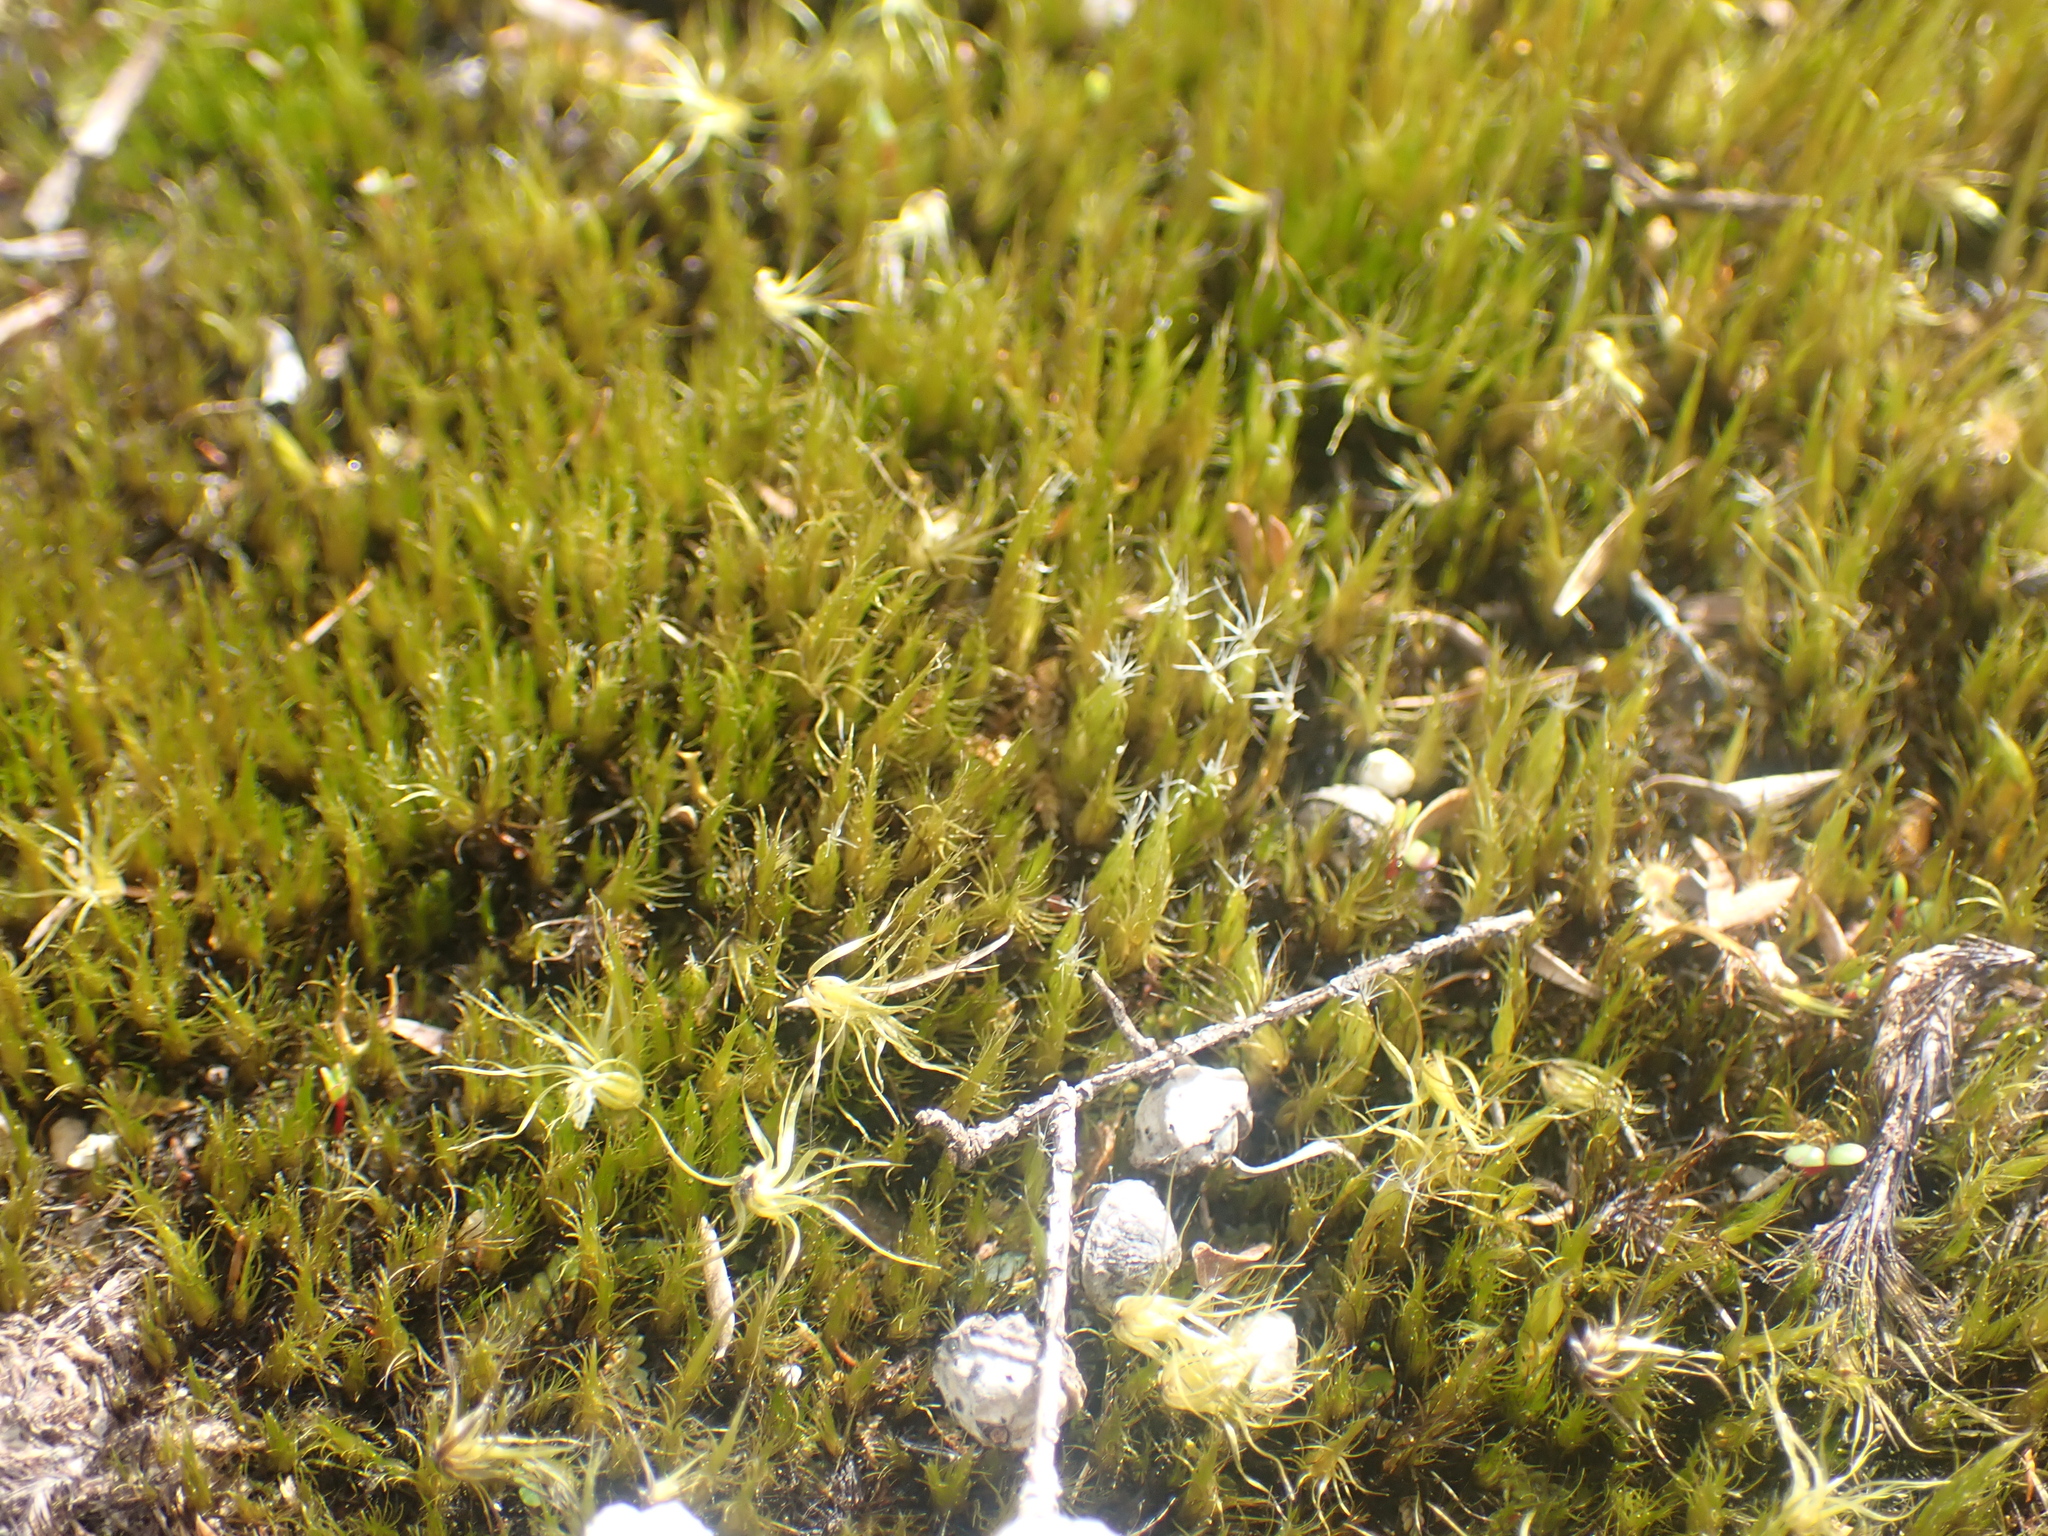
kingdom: Plantae
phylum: Bryophyta
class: Bryopsida
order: Dicranales
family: Leucobryaceae
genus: Campylopus
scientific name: Campylopus clavatus
